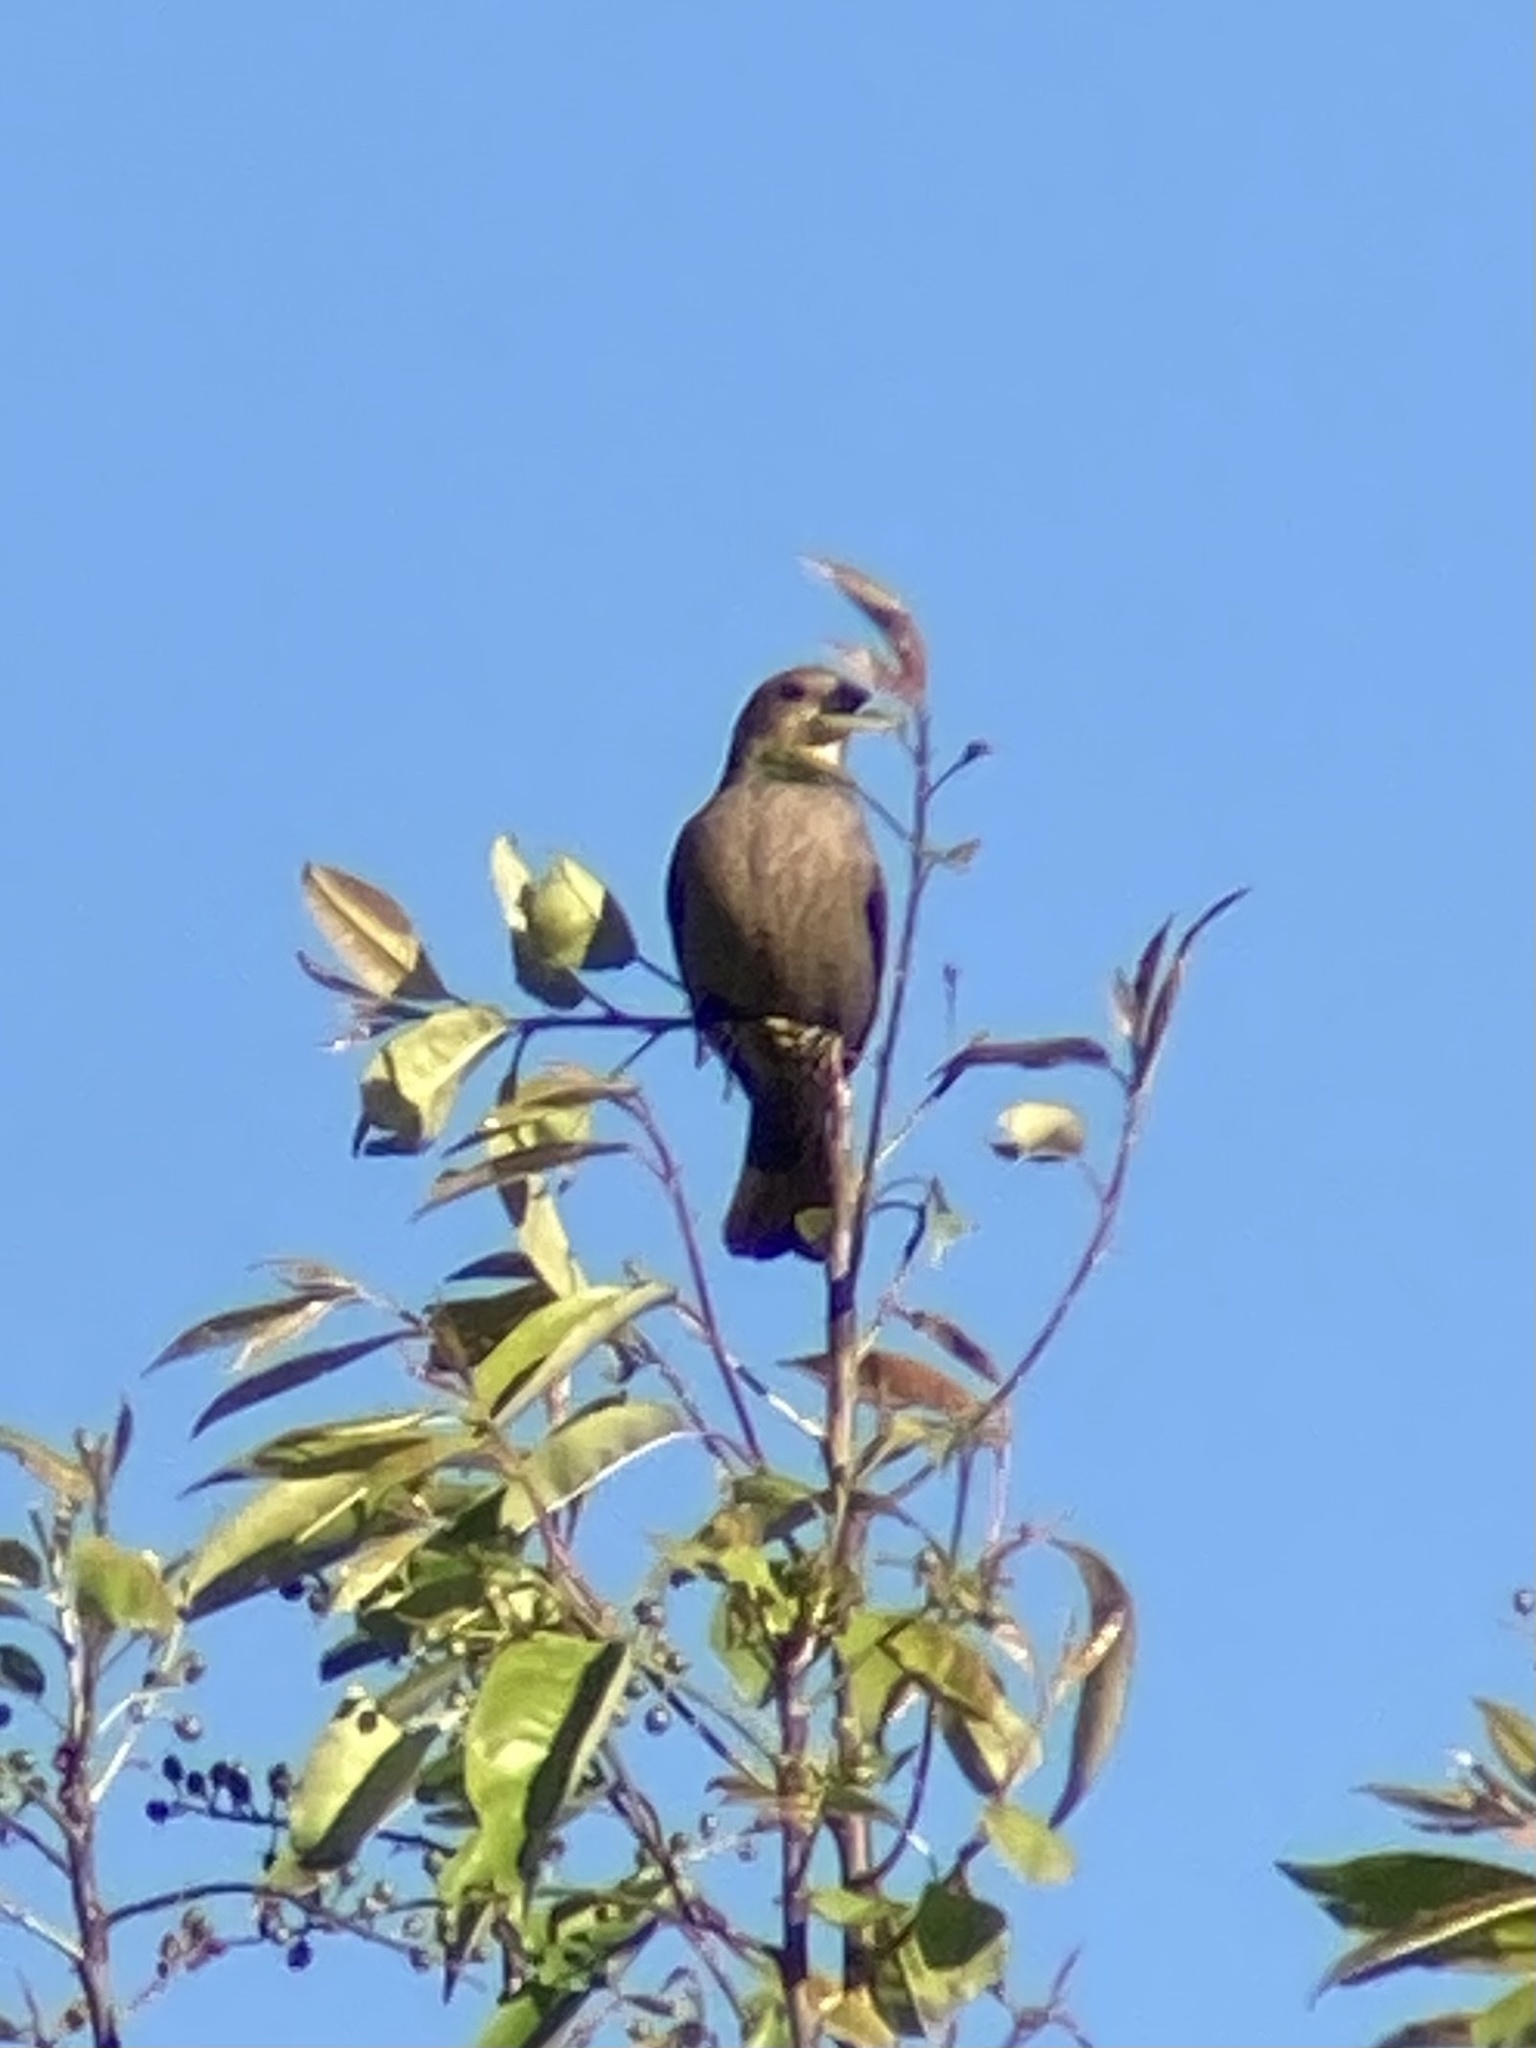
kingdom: Animalia
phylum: Chordata
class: Aves
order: Passeriformes
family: Icteridae
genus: Molothrus
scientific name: Molothrus ater
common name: Brown-headed cowbird
